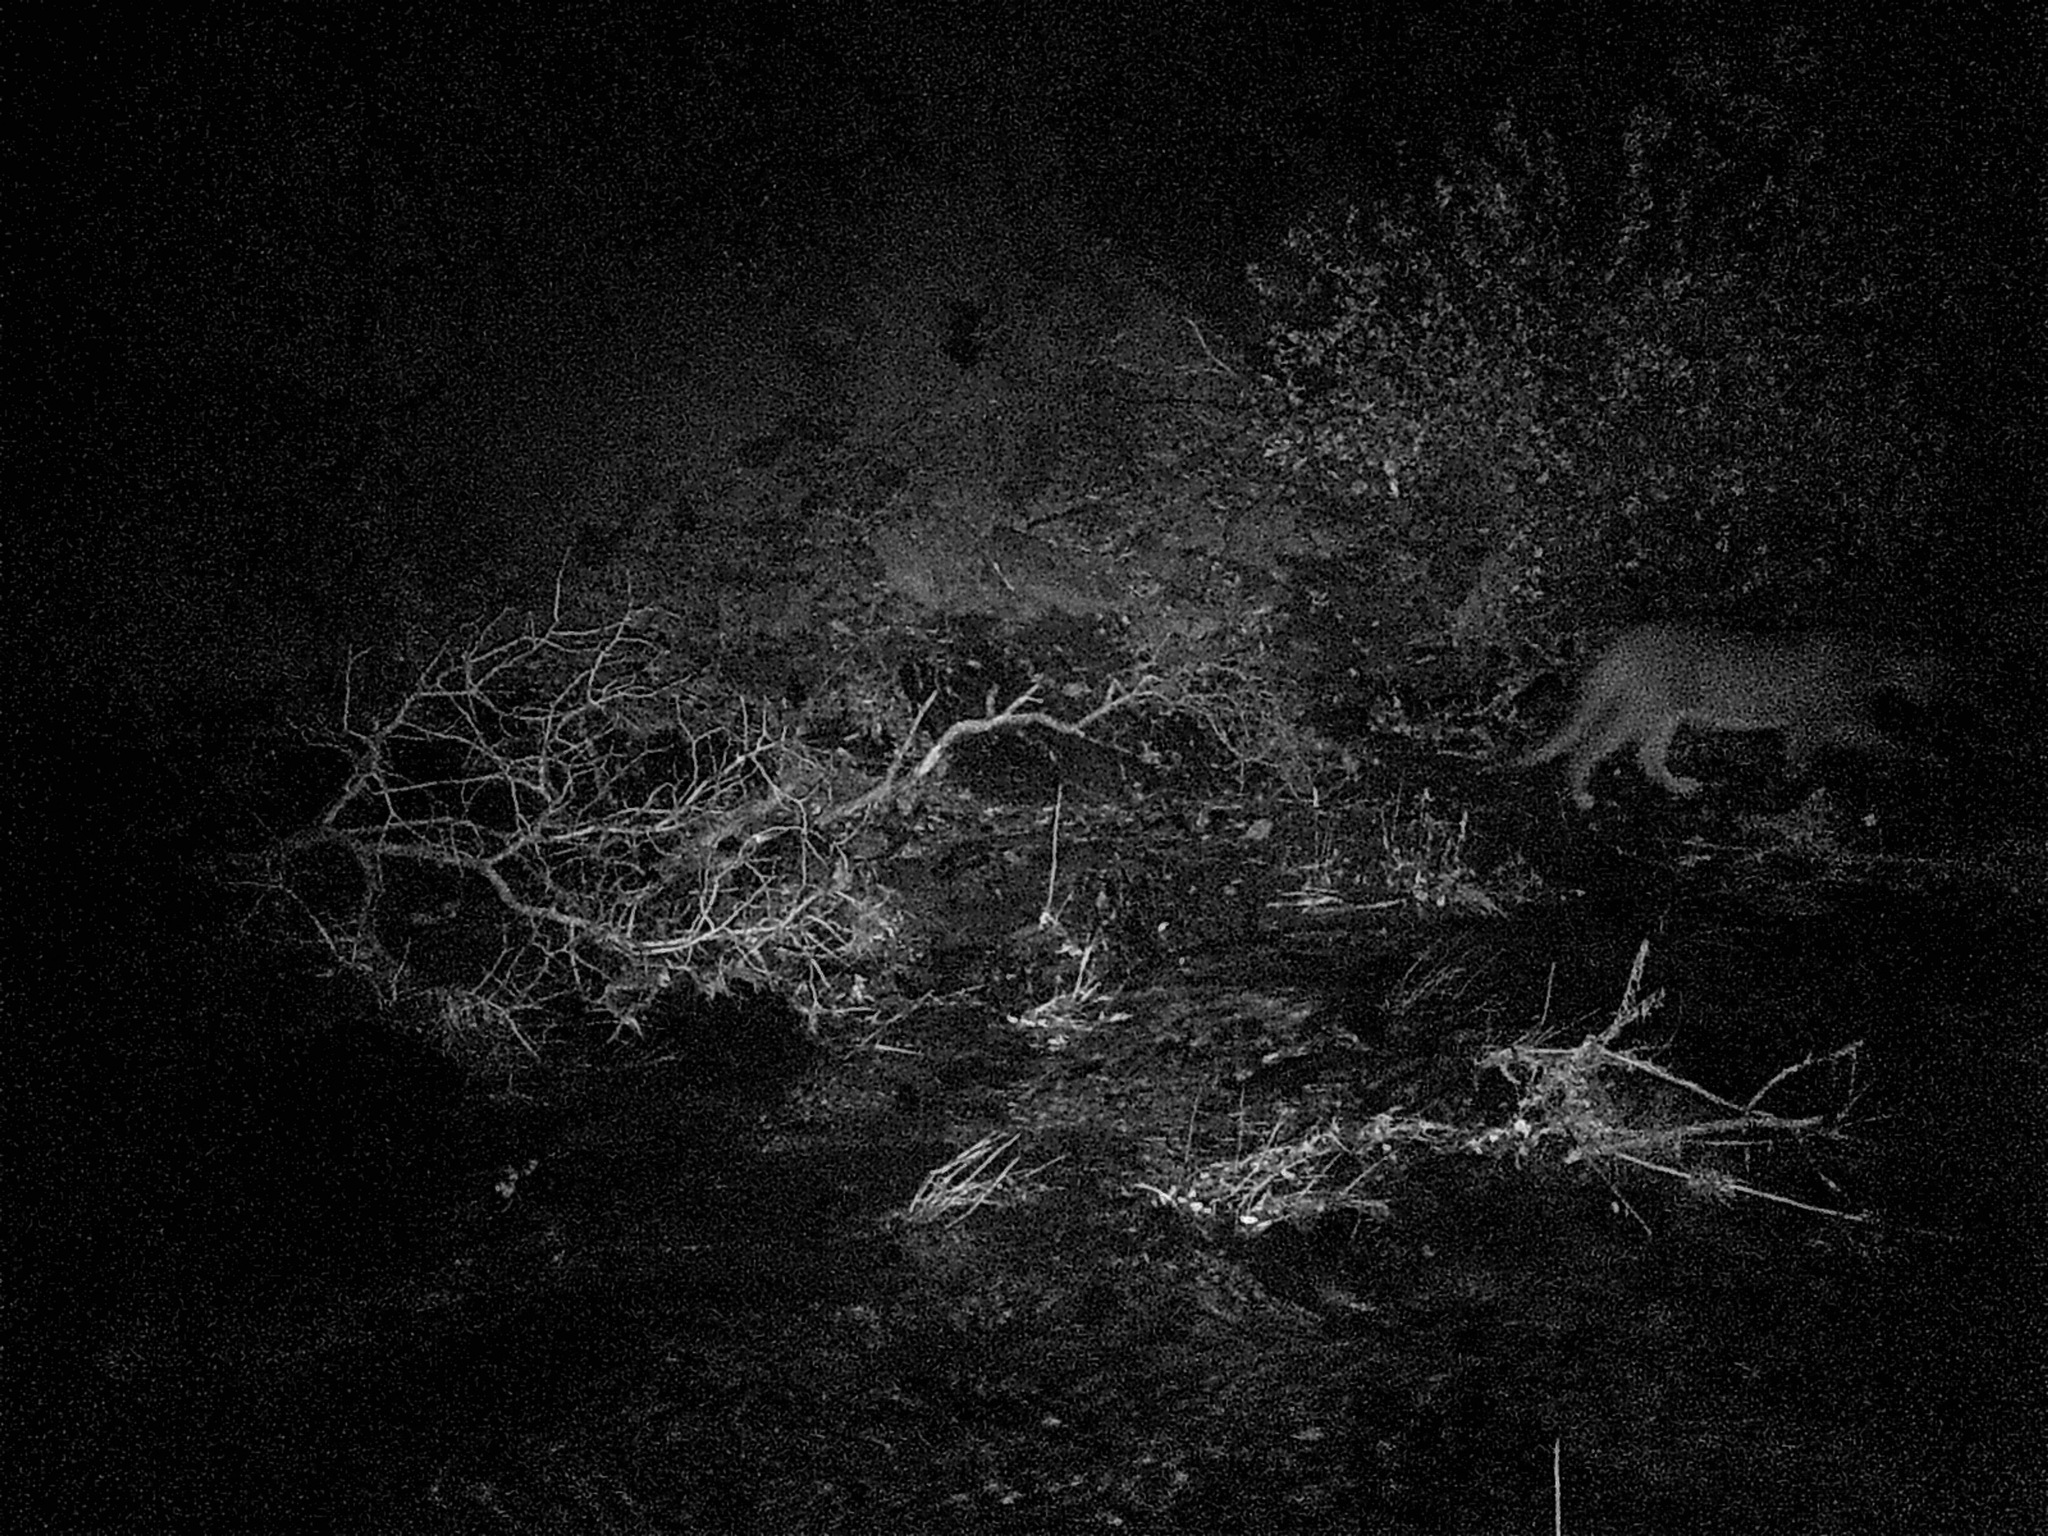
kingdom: Animalia
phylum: Chordata
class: Mammalia
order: Carnivora
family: Felidae
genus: Puma
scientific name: Puma concolor
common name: Puma
